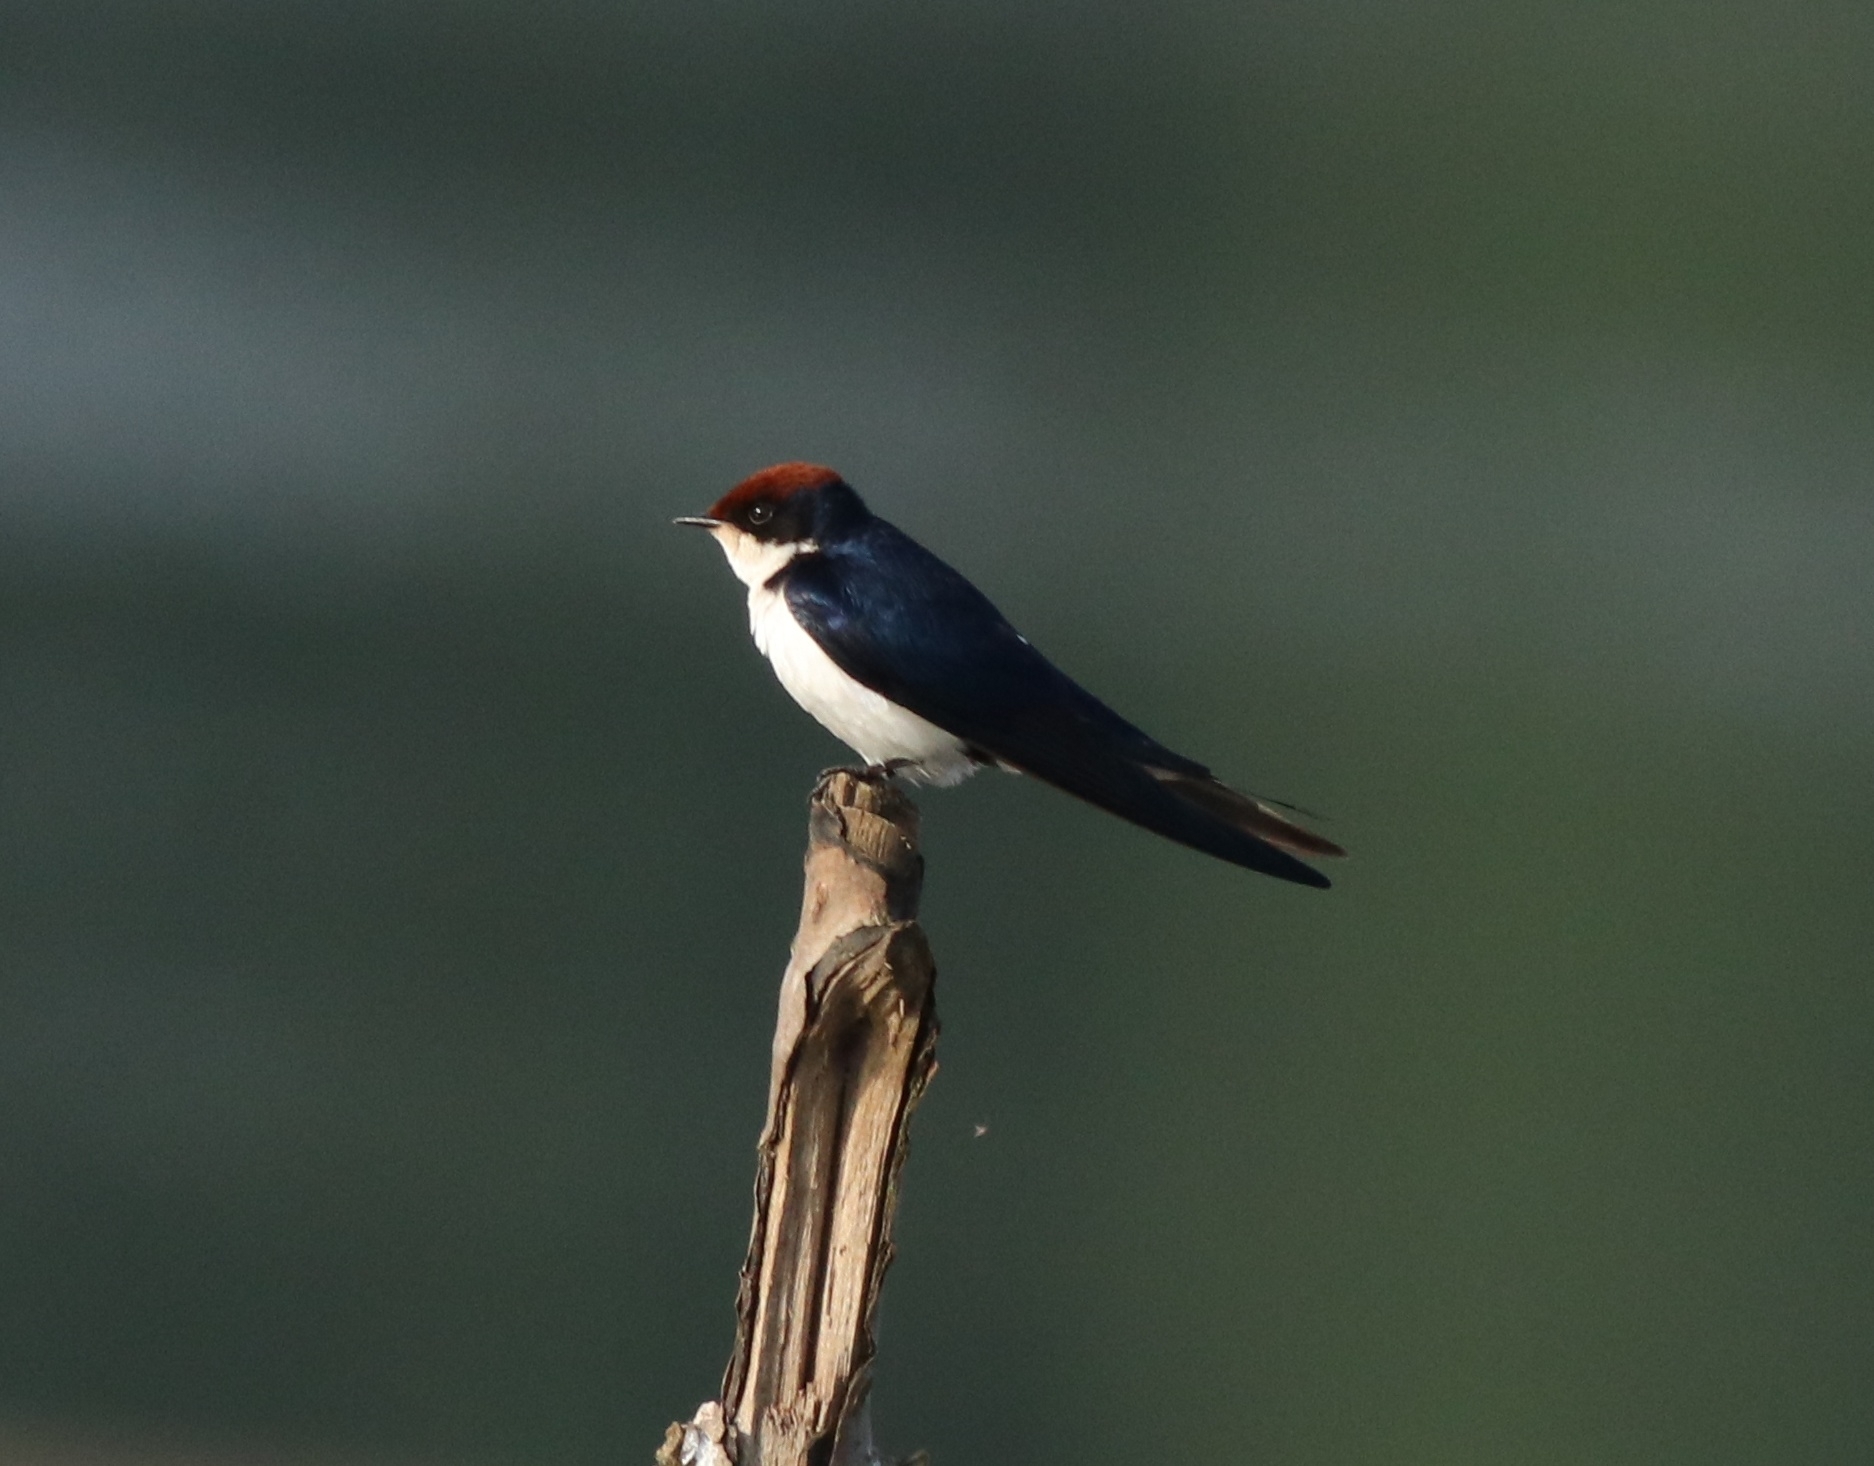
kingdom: Animalia
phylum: Chordata
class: Aves
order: Passeriformes
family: Hirundinidae
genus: Hirundo
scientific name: Hirundo smithii
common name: Wire-tailed swallow
